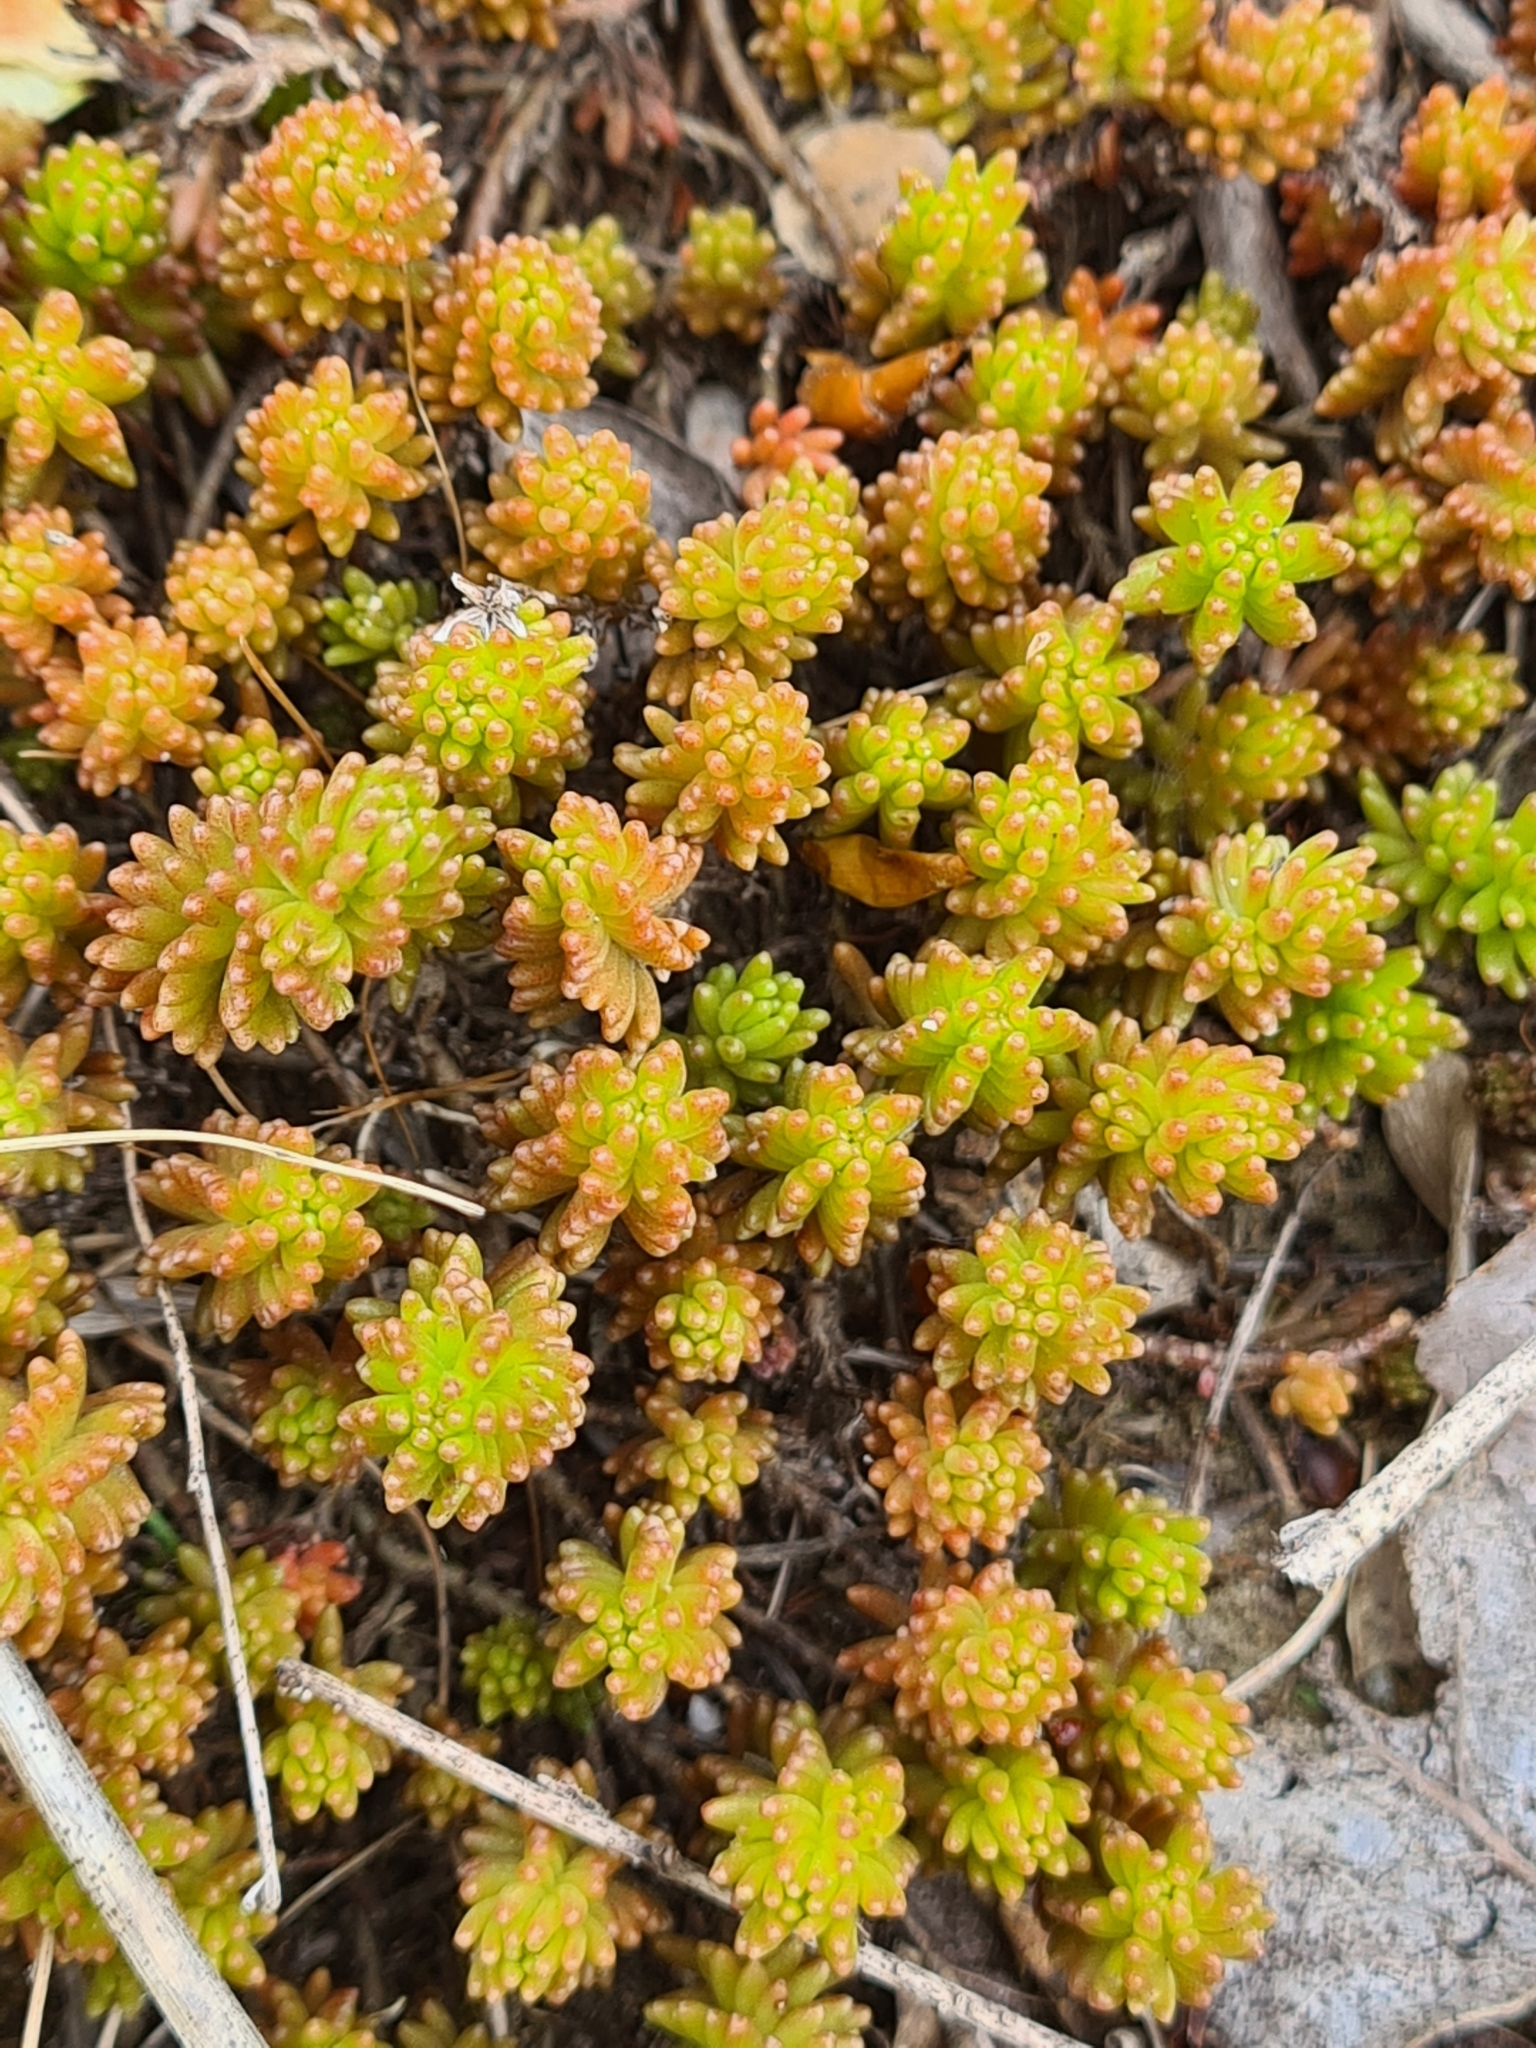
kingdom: Plantae
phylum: Tracheophyta
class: Magnoliopsida
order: Saxifragales
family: Crassulaceae
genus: Sedum
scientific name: Sedum sexangulare
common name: Tasteless stonecrop
